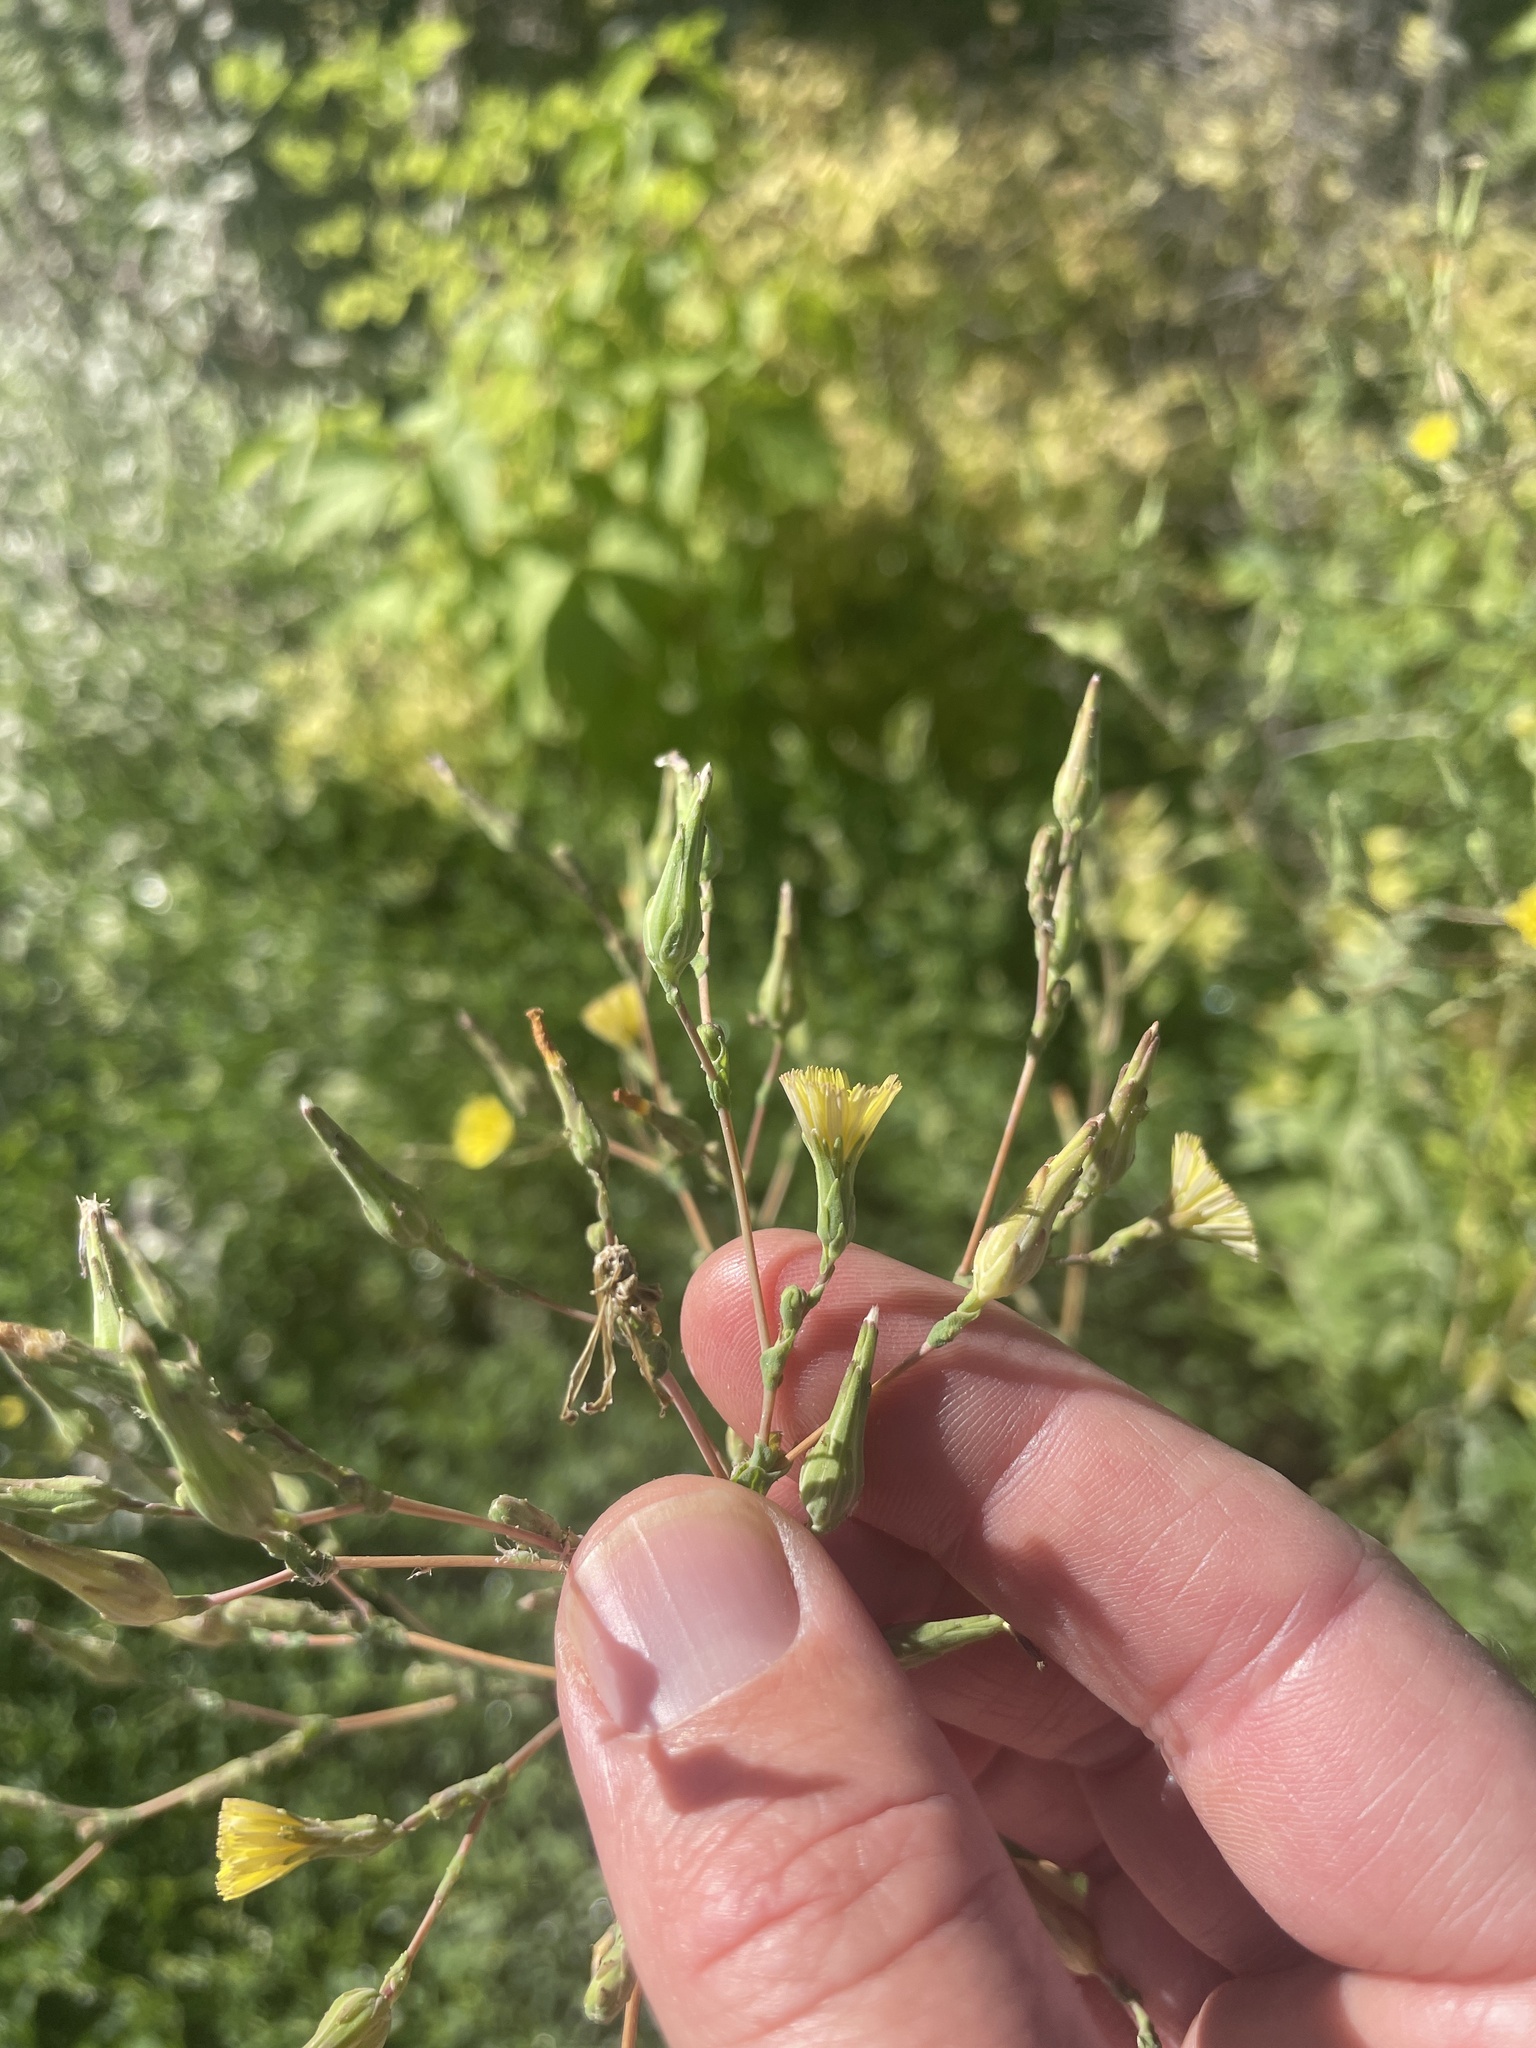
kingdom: Plantae
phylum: Tracheophyta
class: Magnoliopsida
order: Asterales
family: Asteraceae
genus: Lactuca
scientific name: Lactuca serriola
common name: Prickly lettuce
